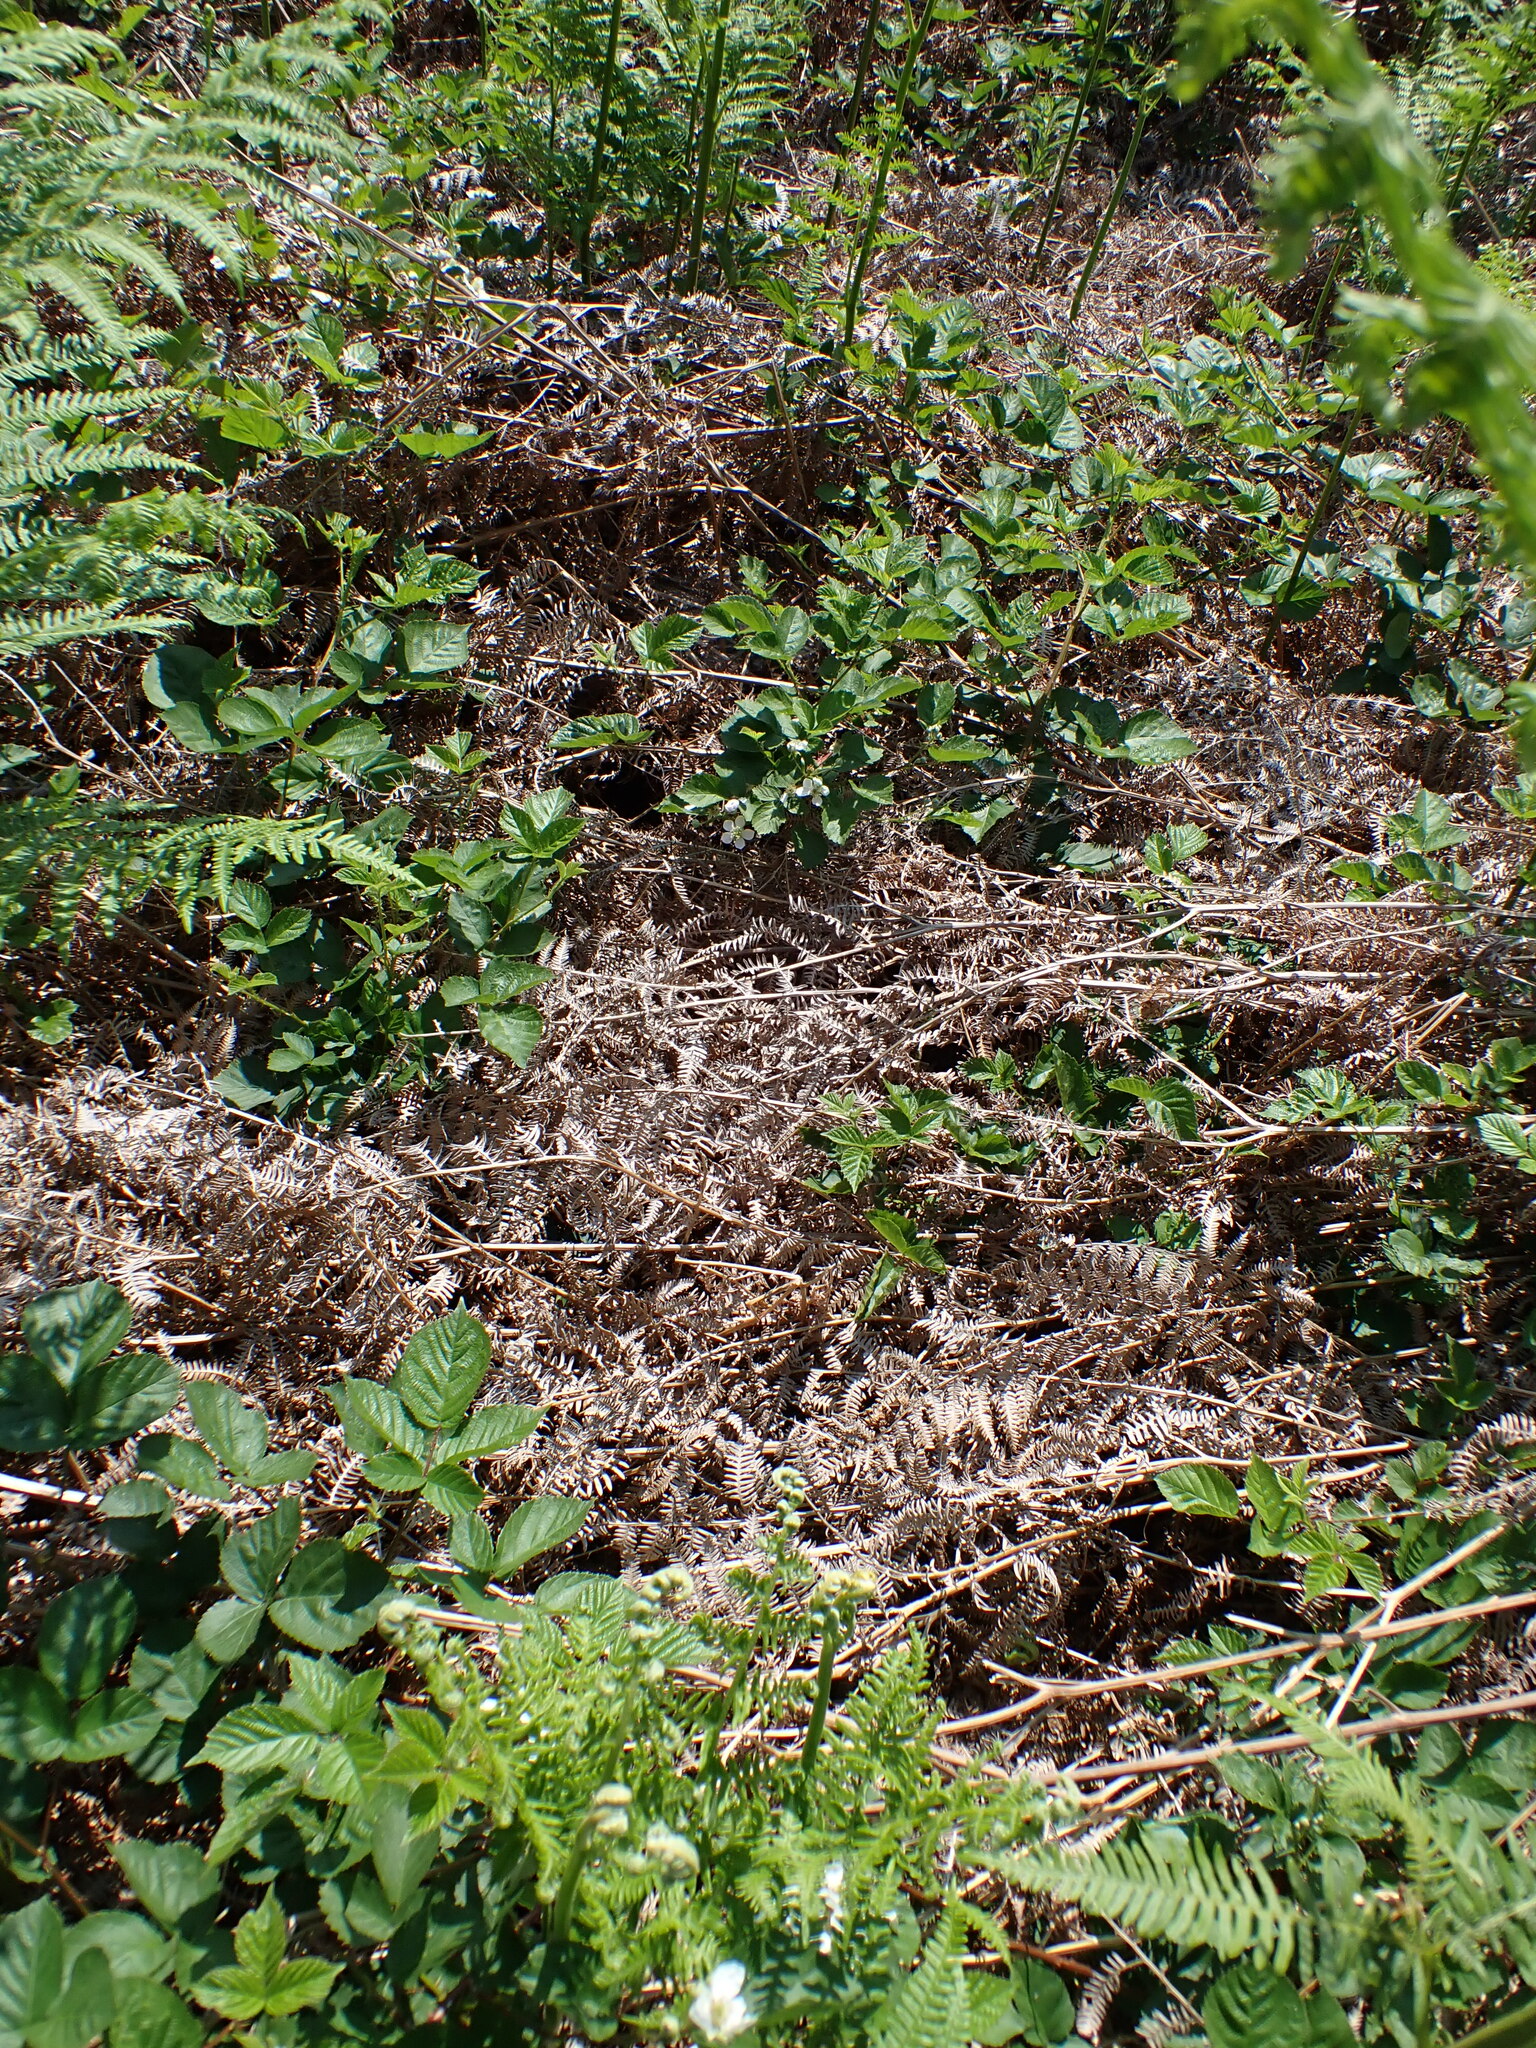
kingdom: Plantae
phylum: Tracheophyta
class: Polypodiopsida
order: Polypodiales
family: Dennstaedtiaceae
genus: Pteridium
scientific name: Pteridium aquilinum
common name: Bracken
